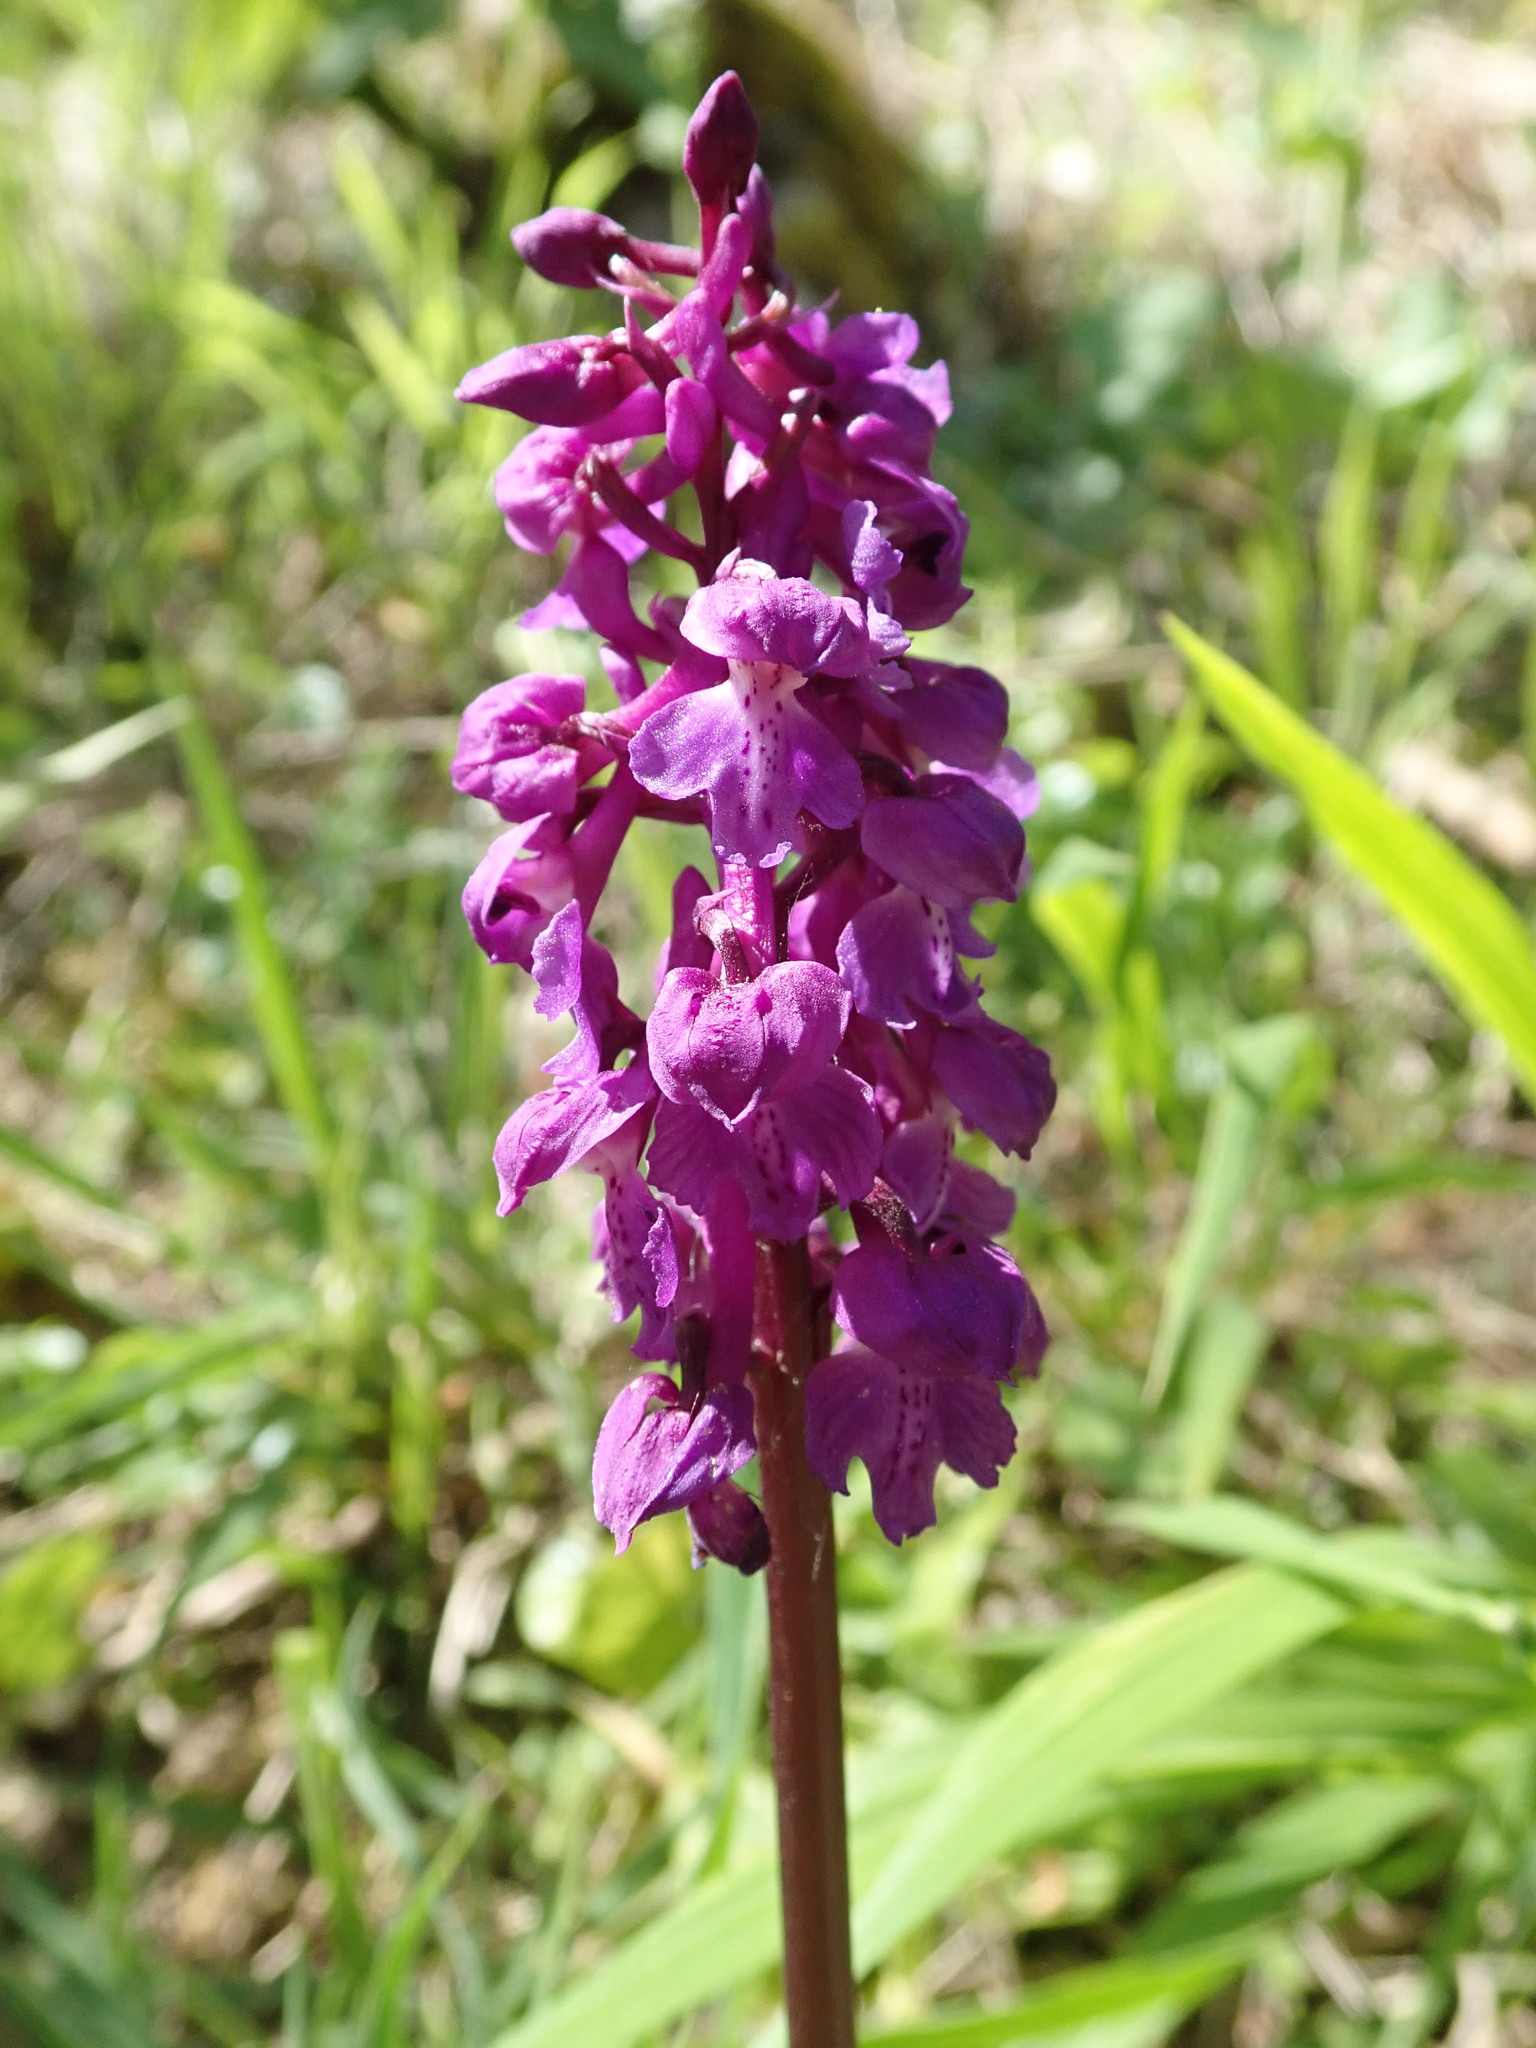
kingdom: Plantae
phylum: Tracheophyta
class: Liliopsida
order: Asparagales
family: Orchidaceae
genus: Orchis
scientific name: Orchis mascula
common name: Early-purple orchid
